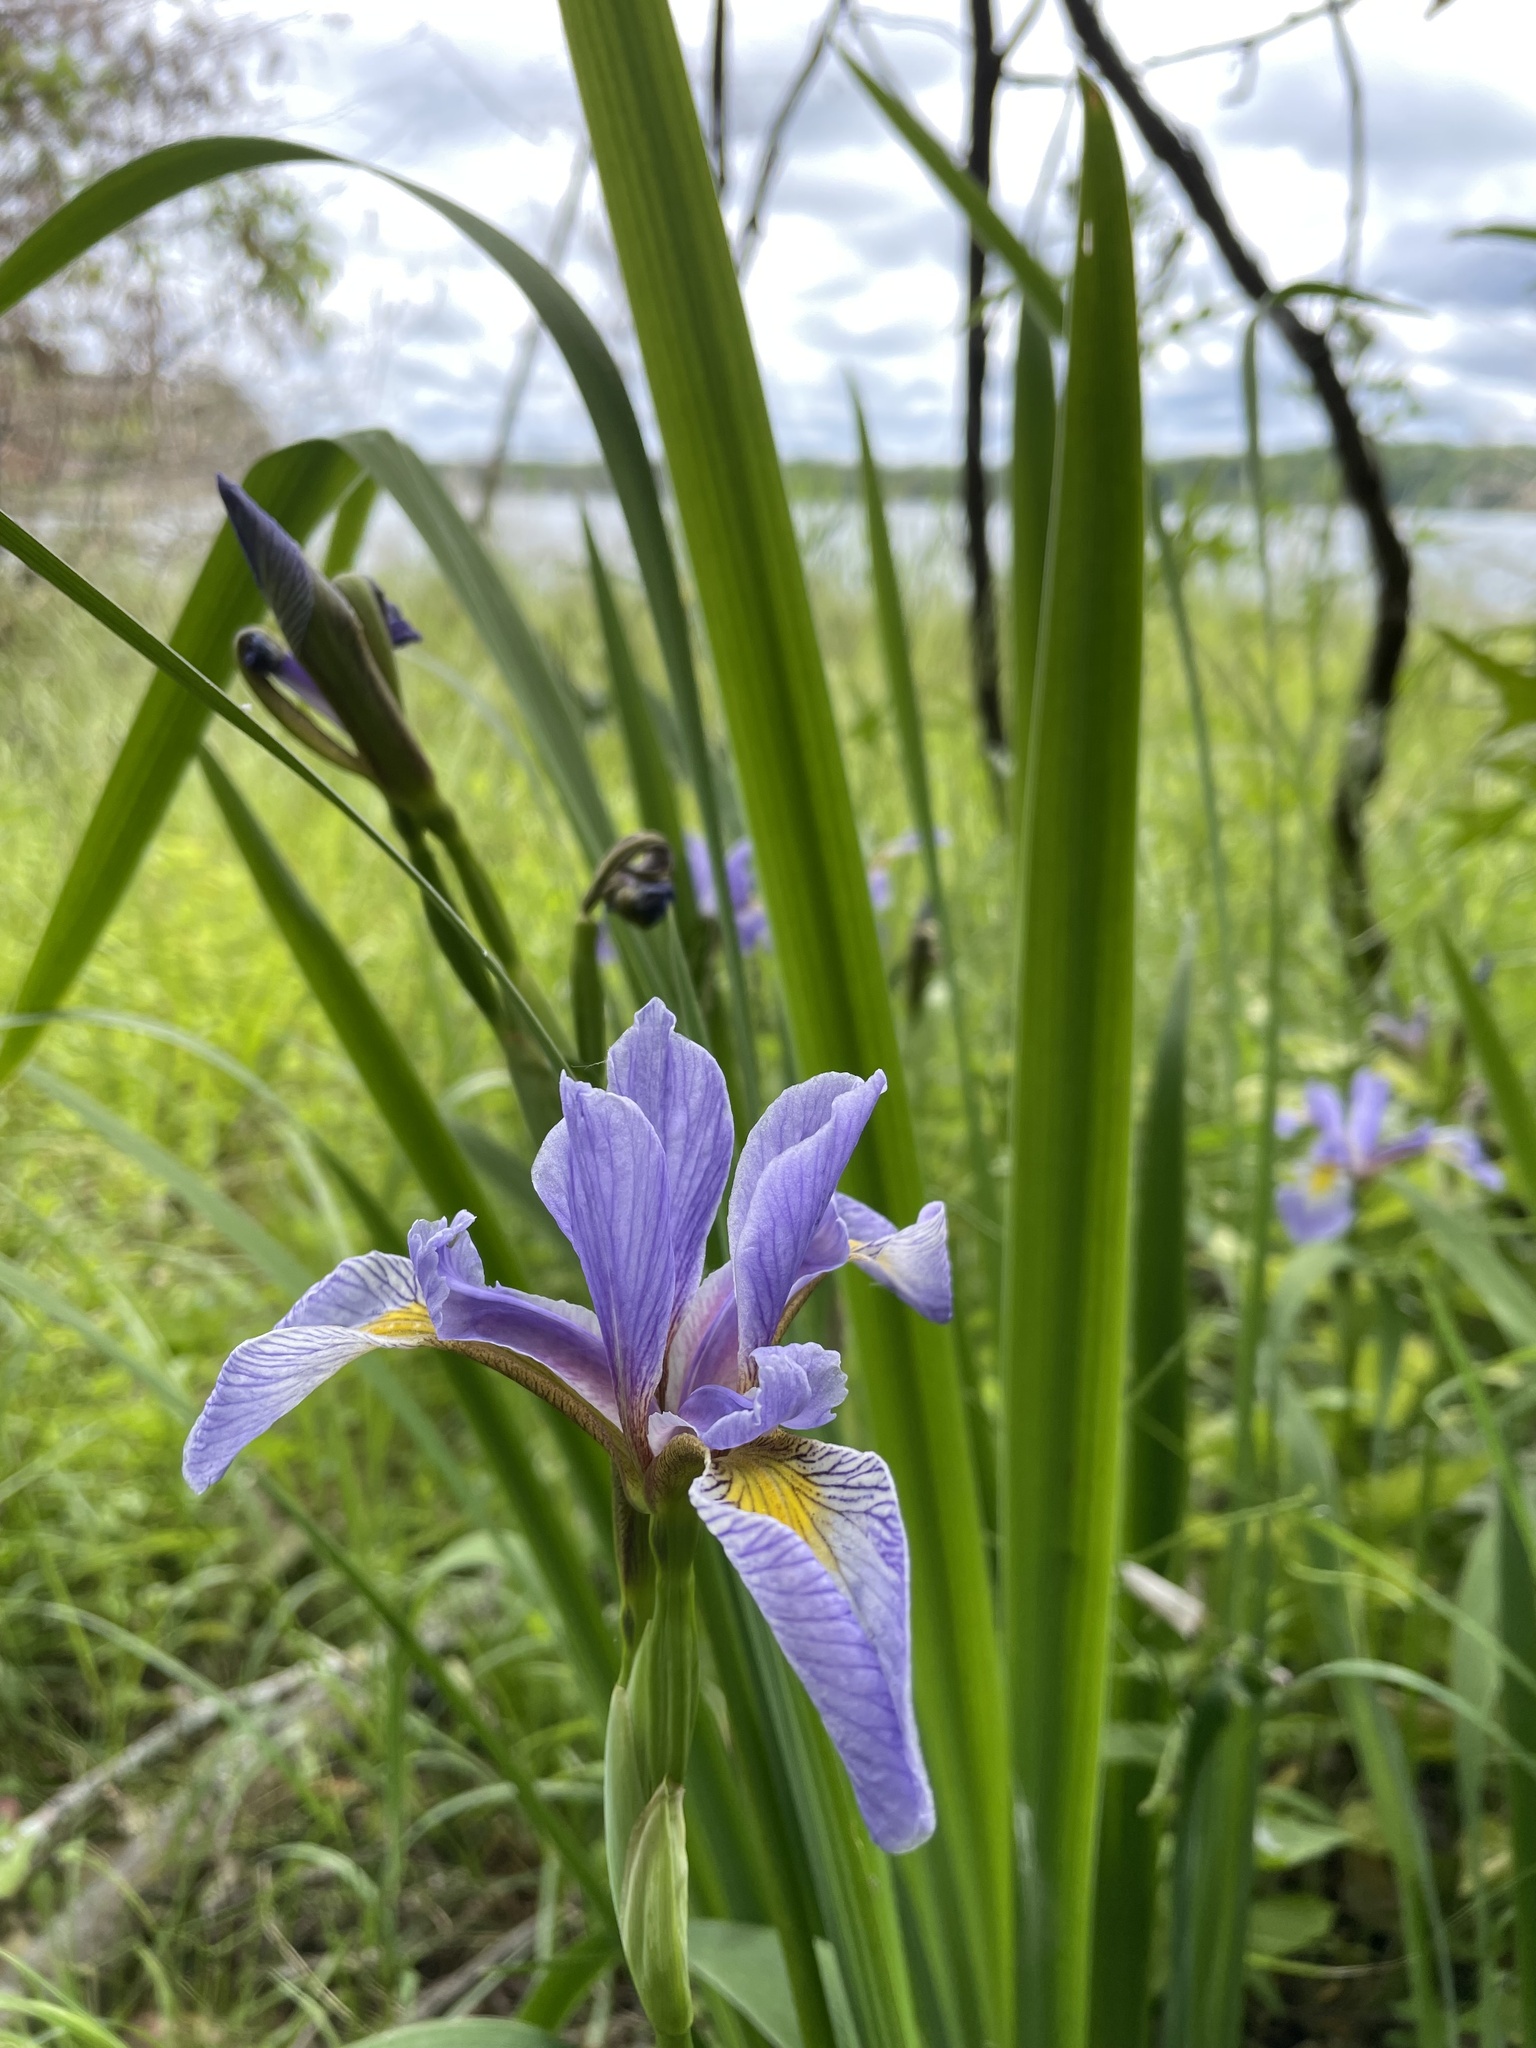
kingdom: Plantae
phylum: Tracheophyta
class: Liliopsida
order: Asparagales
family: Iridaceae
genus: Iris
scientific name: Iris virginica
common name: Southern blue flag
